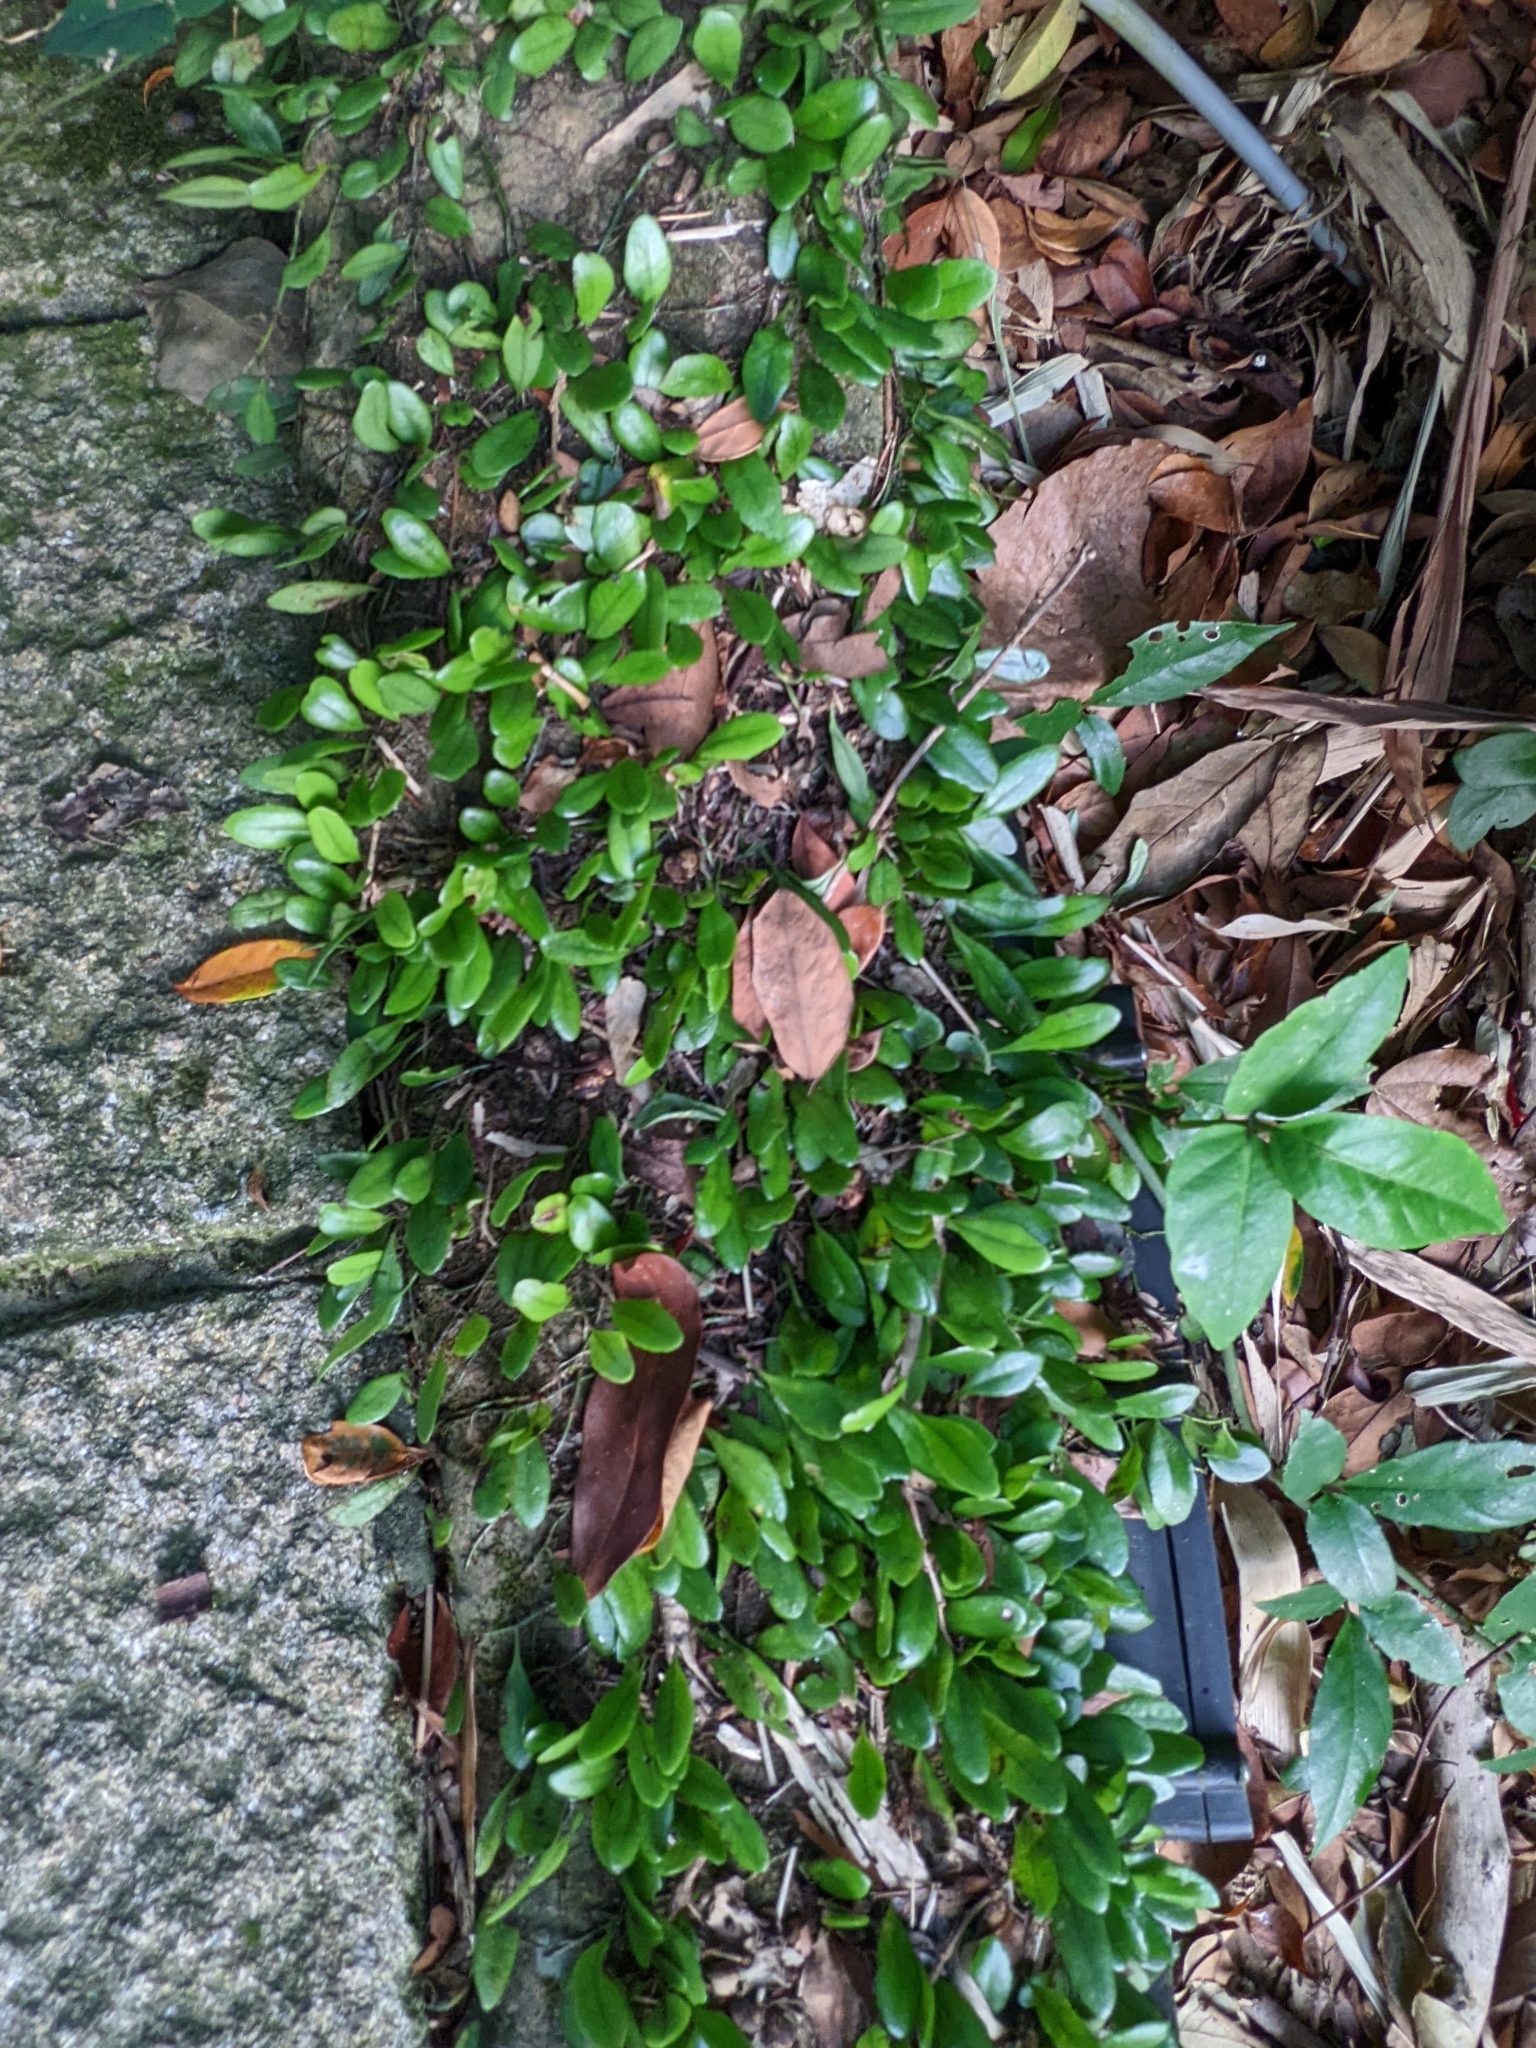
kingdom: Plantae
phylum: Tracheophyta
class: Polypodiopsida
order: Polypodiales
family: Polypodiaceae
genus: Lepisorus
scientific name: Lepisorus microphyllus
